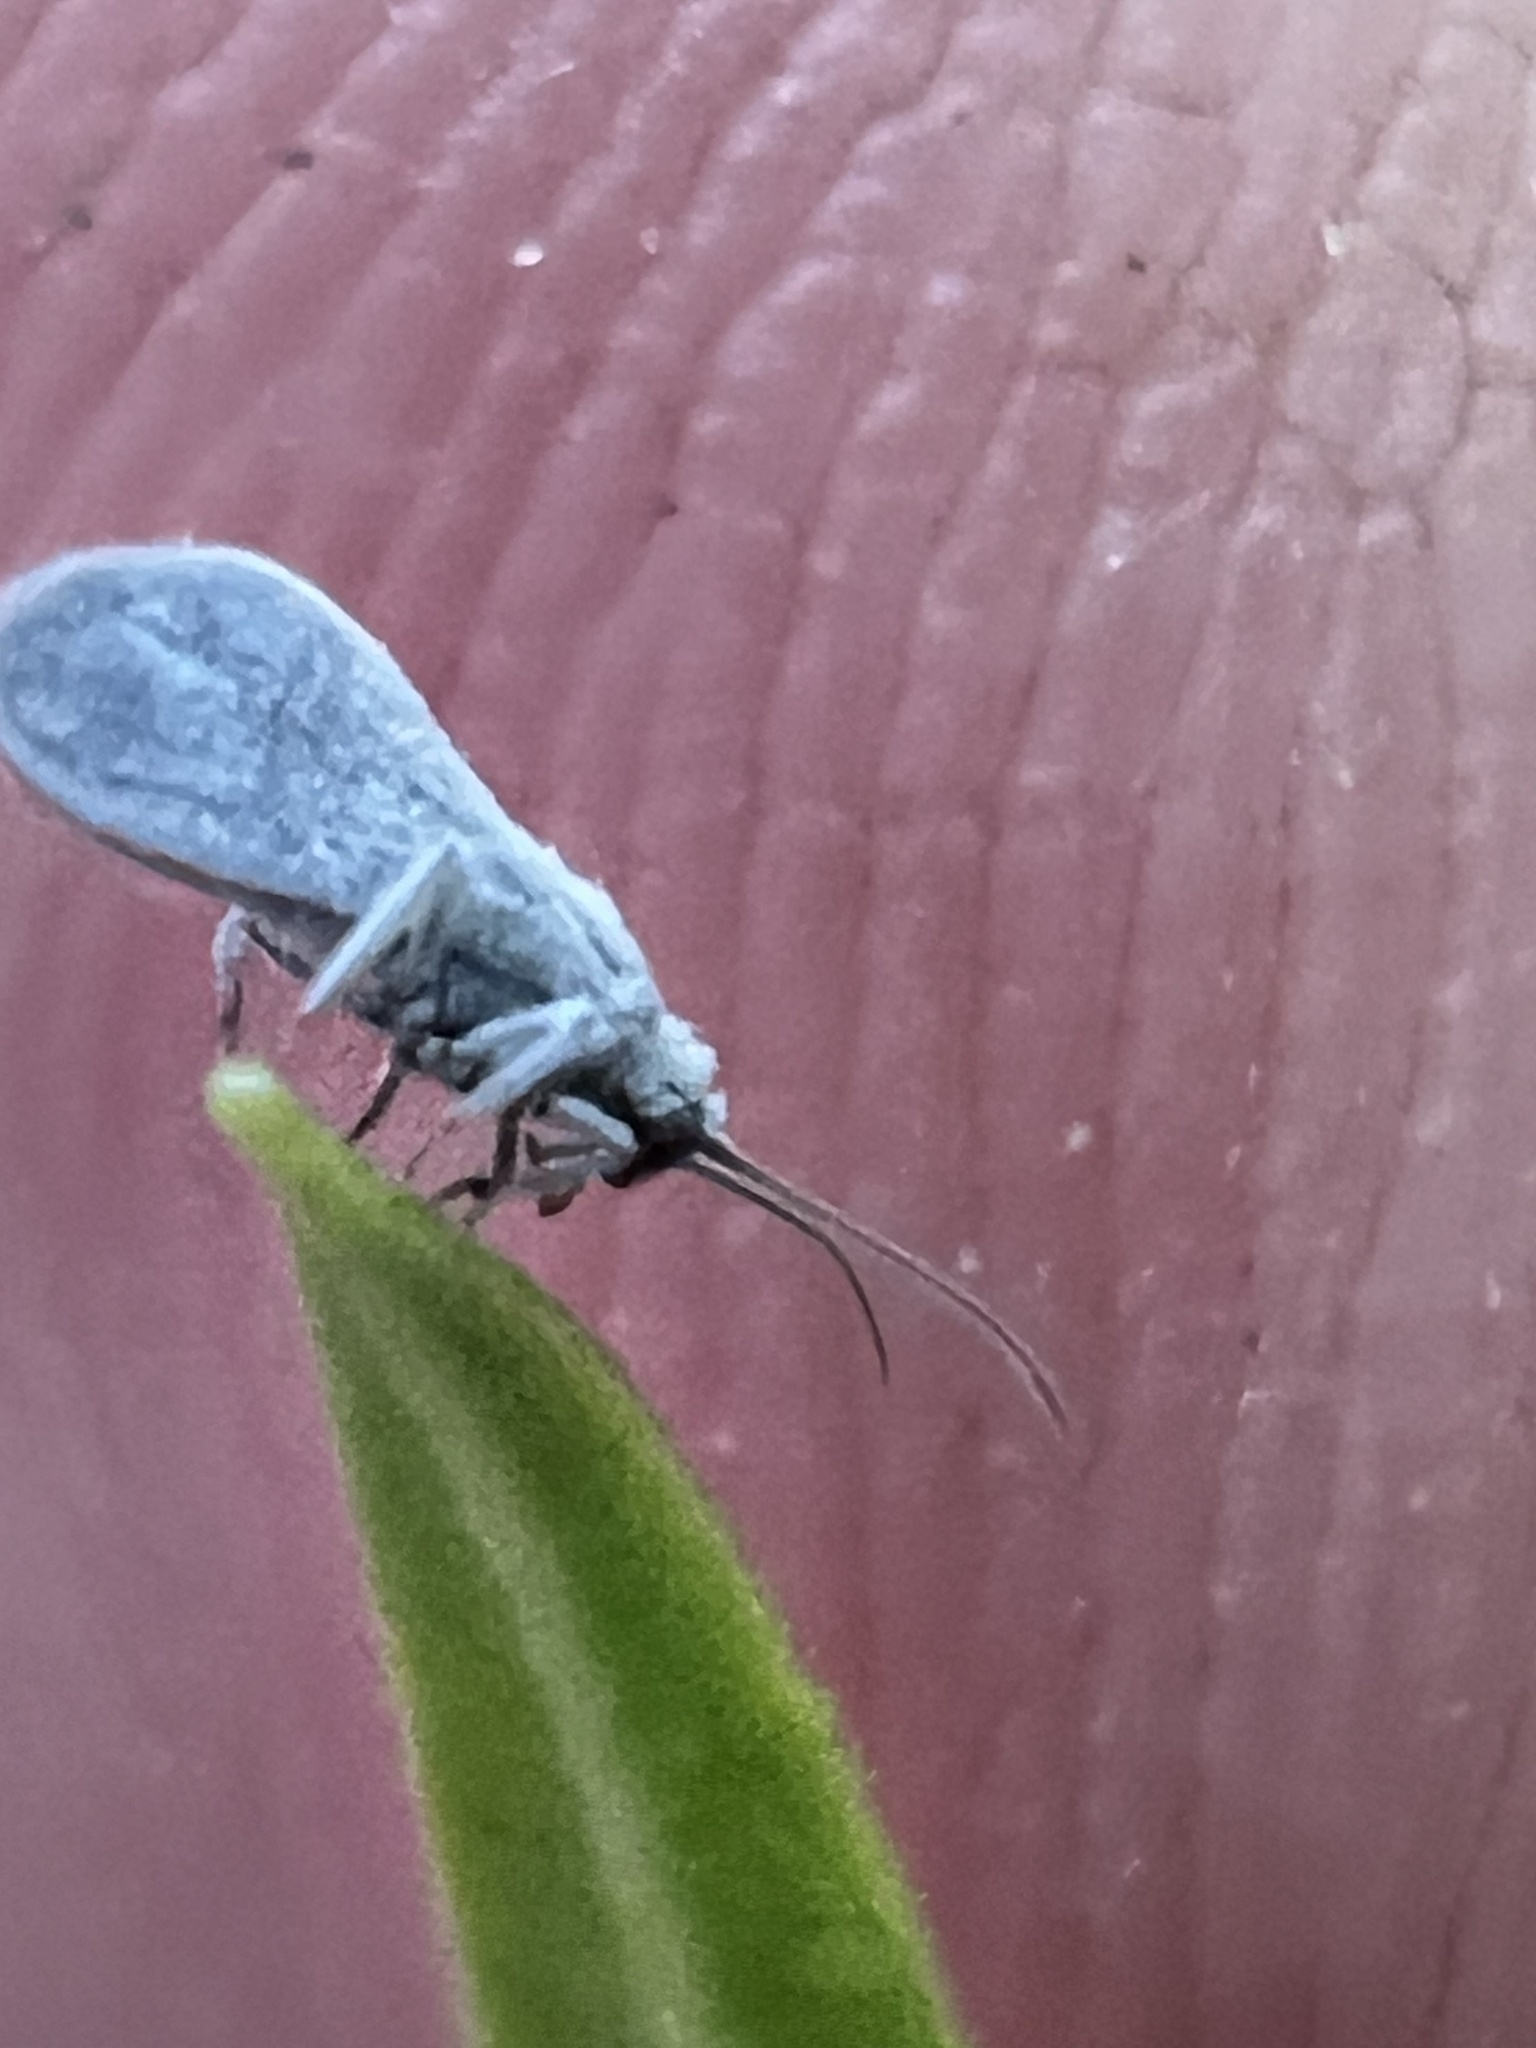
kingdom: Animalia
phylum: Arthropoda
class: Insecta
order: Neuroptera
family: Coniopterygidae
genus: Cryptoscenea
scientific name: Cryptoscenea australiensis
